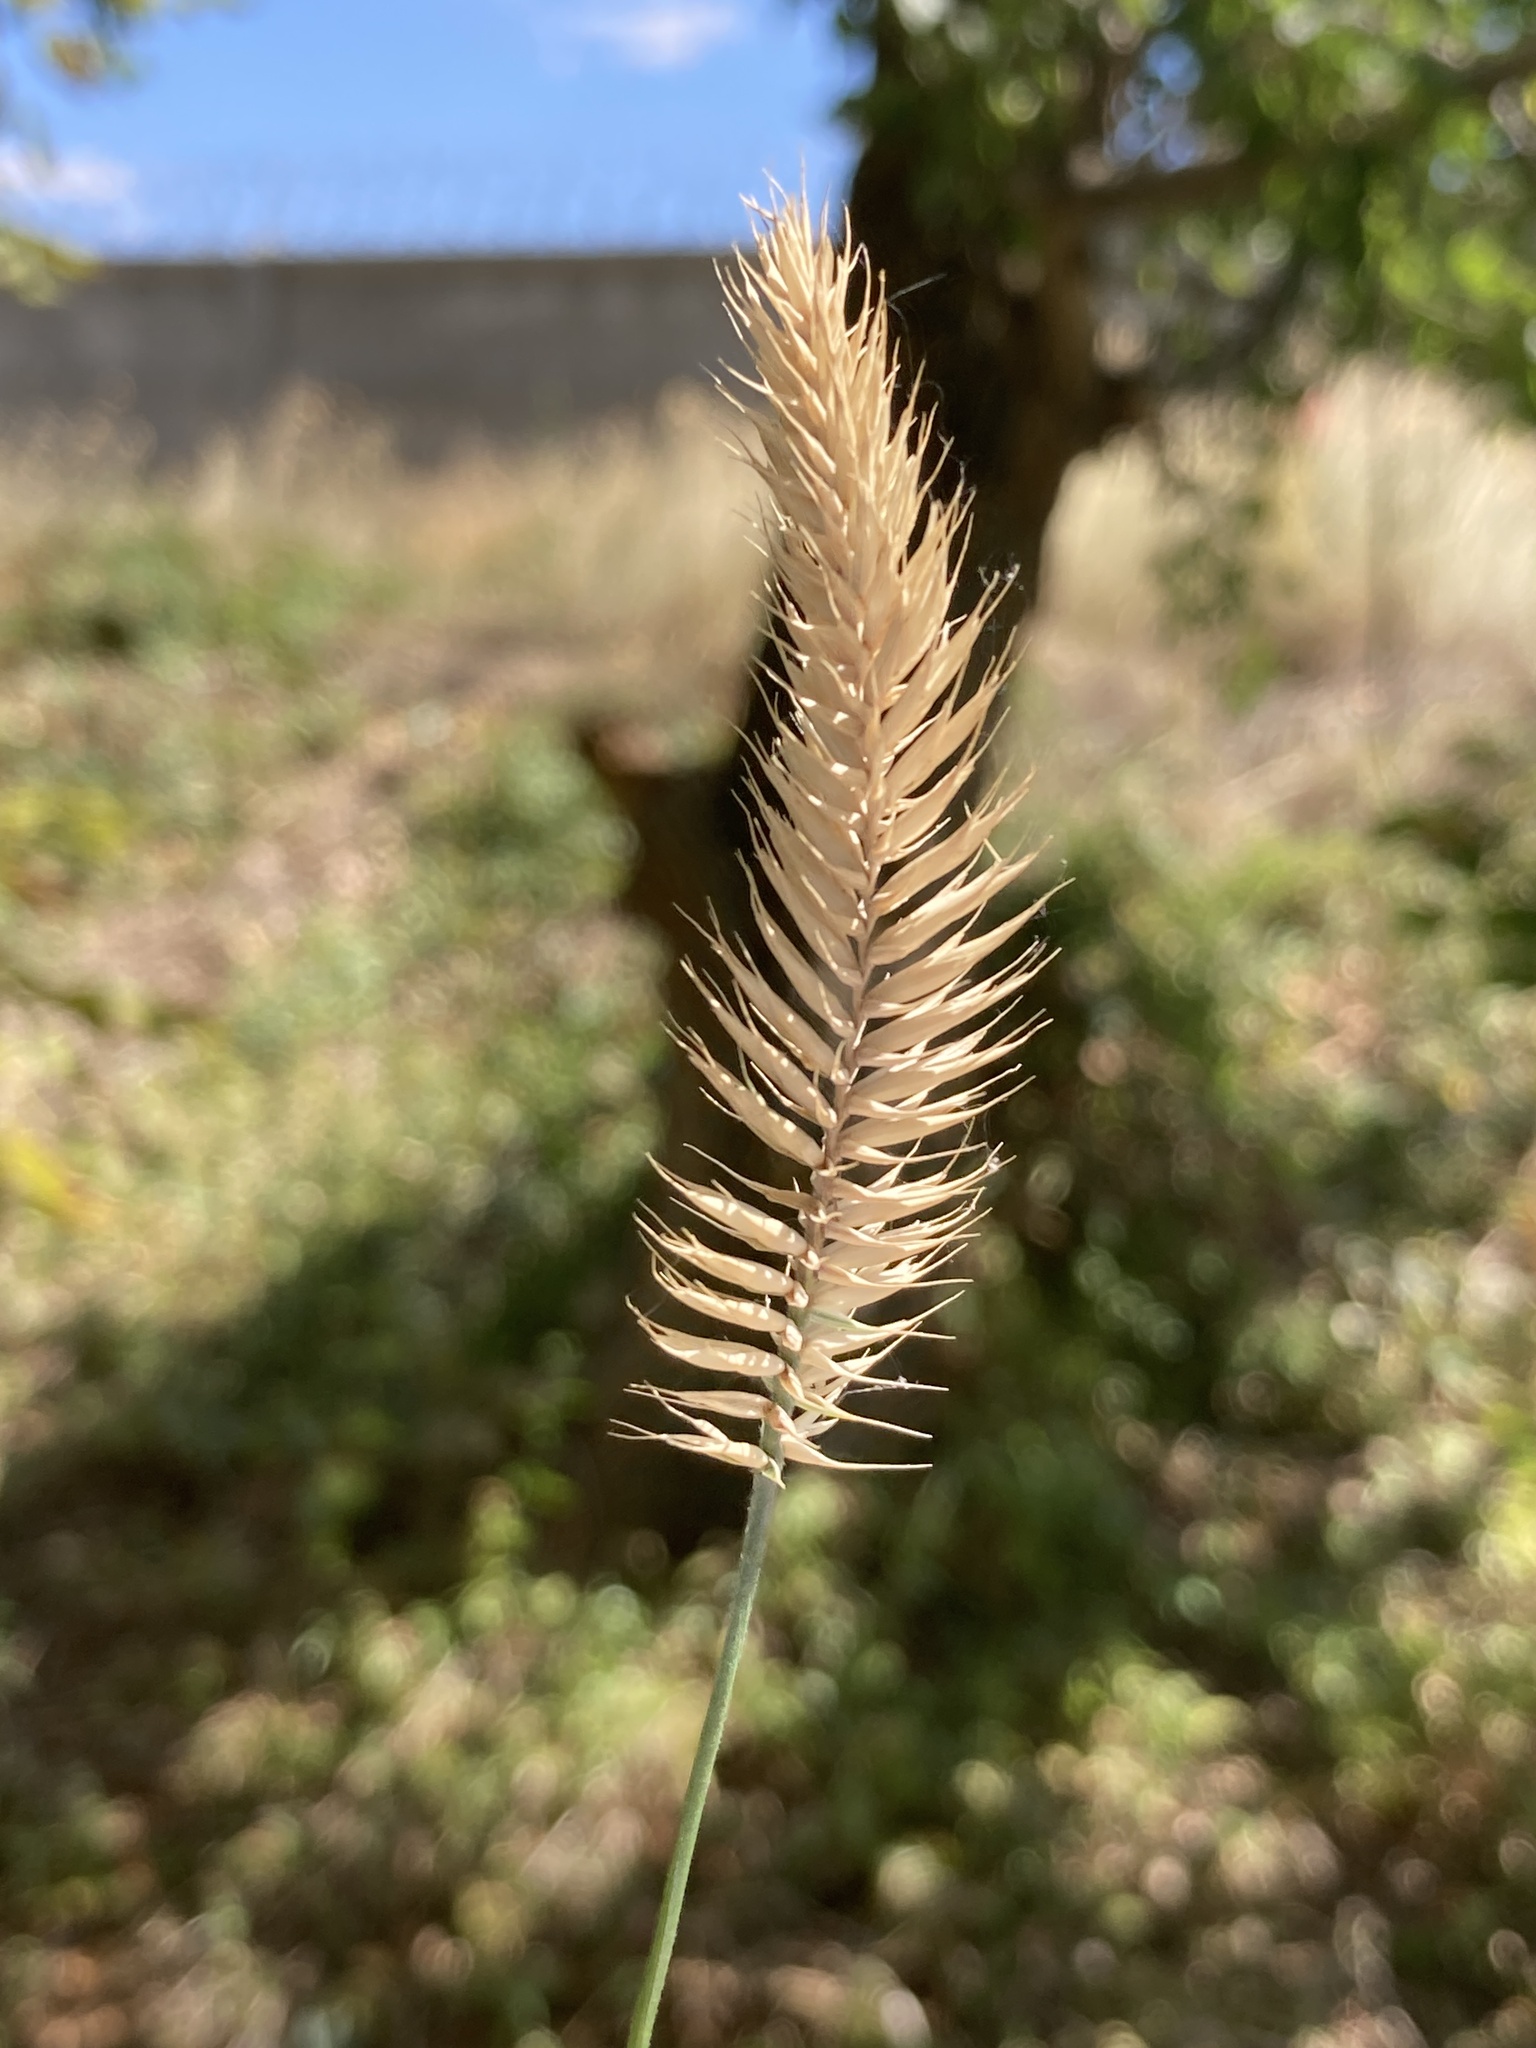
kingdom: Plantae
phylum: Tracheophyta
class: Liliopsida
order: Poales
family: Poaceae
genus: Agropyron
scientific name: Agropyron cristatum
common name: Crested wheatgrass
